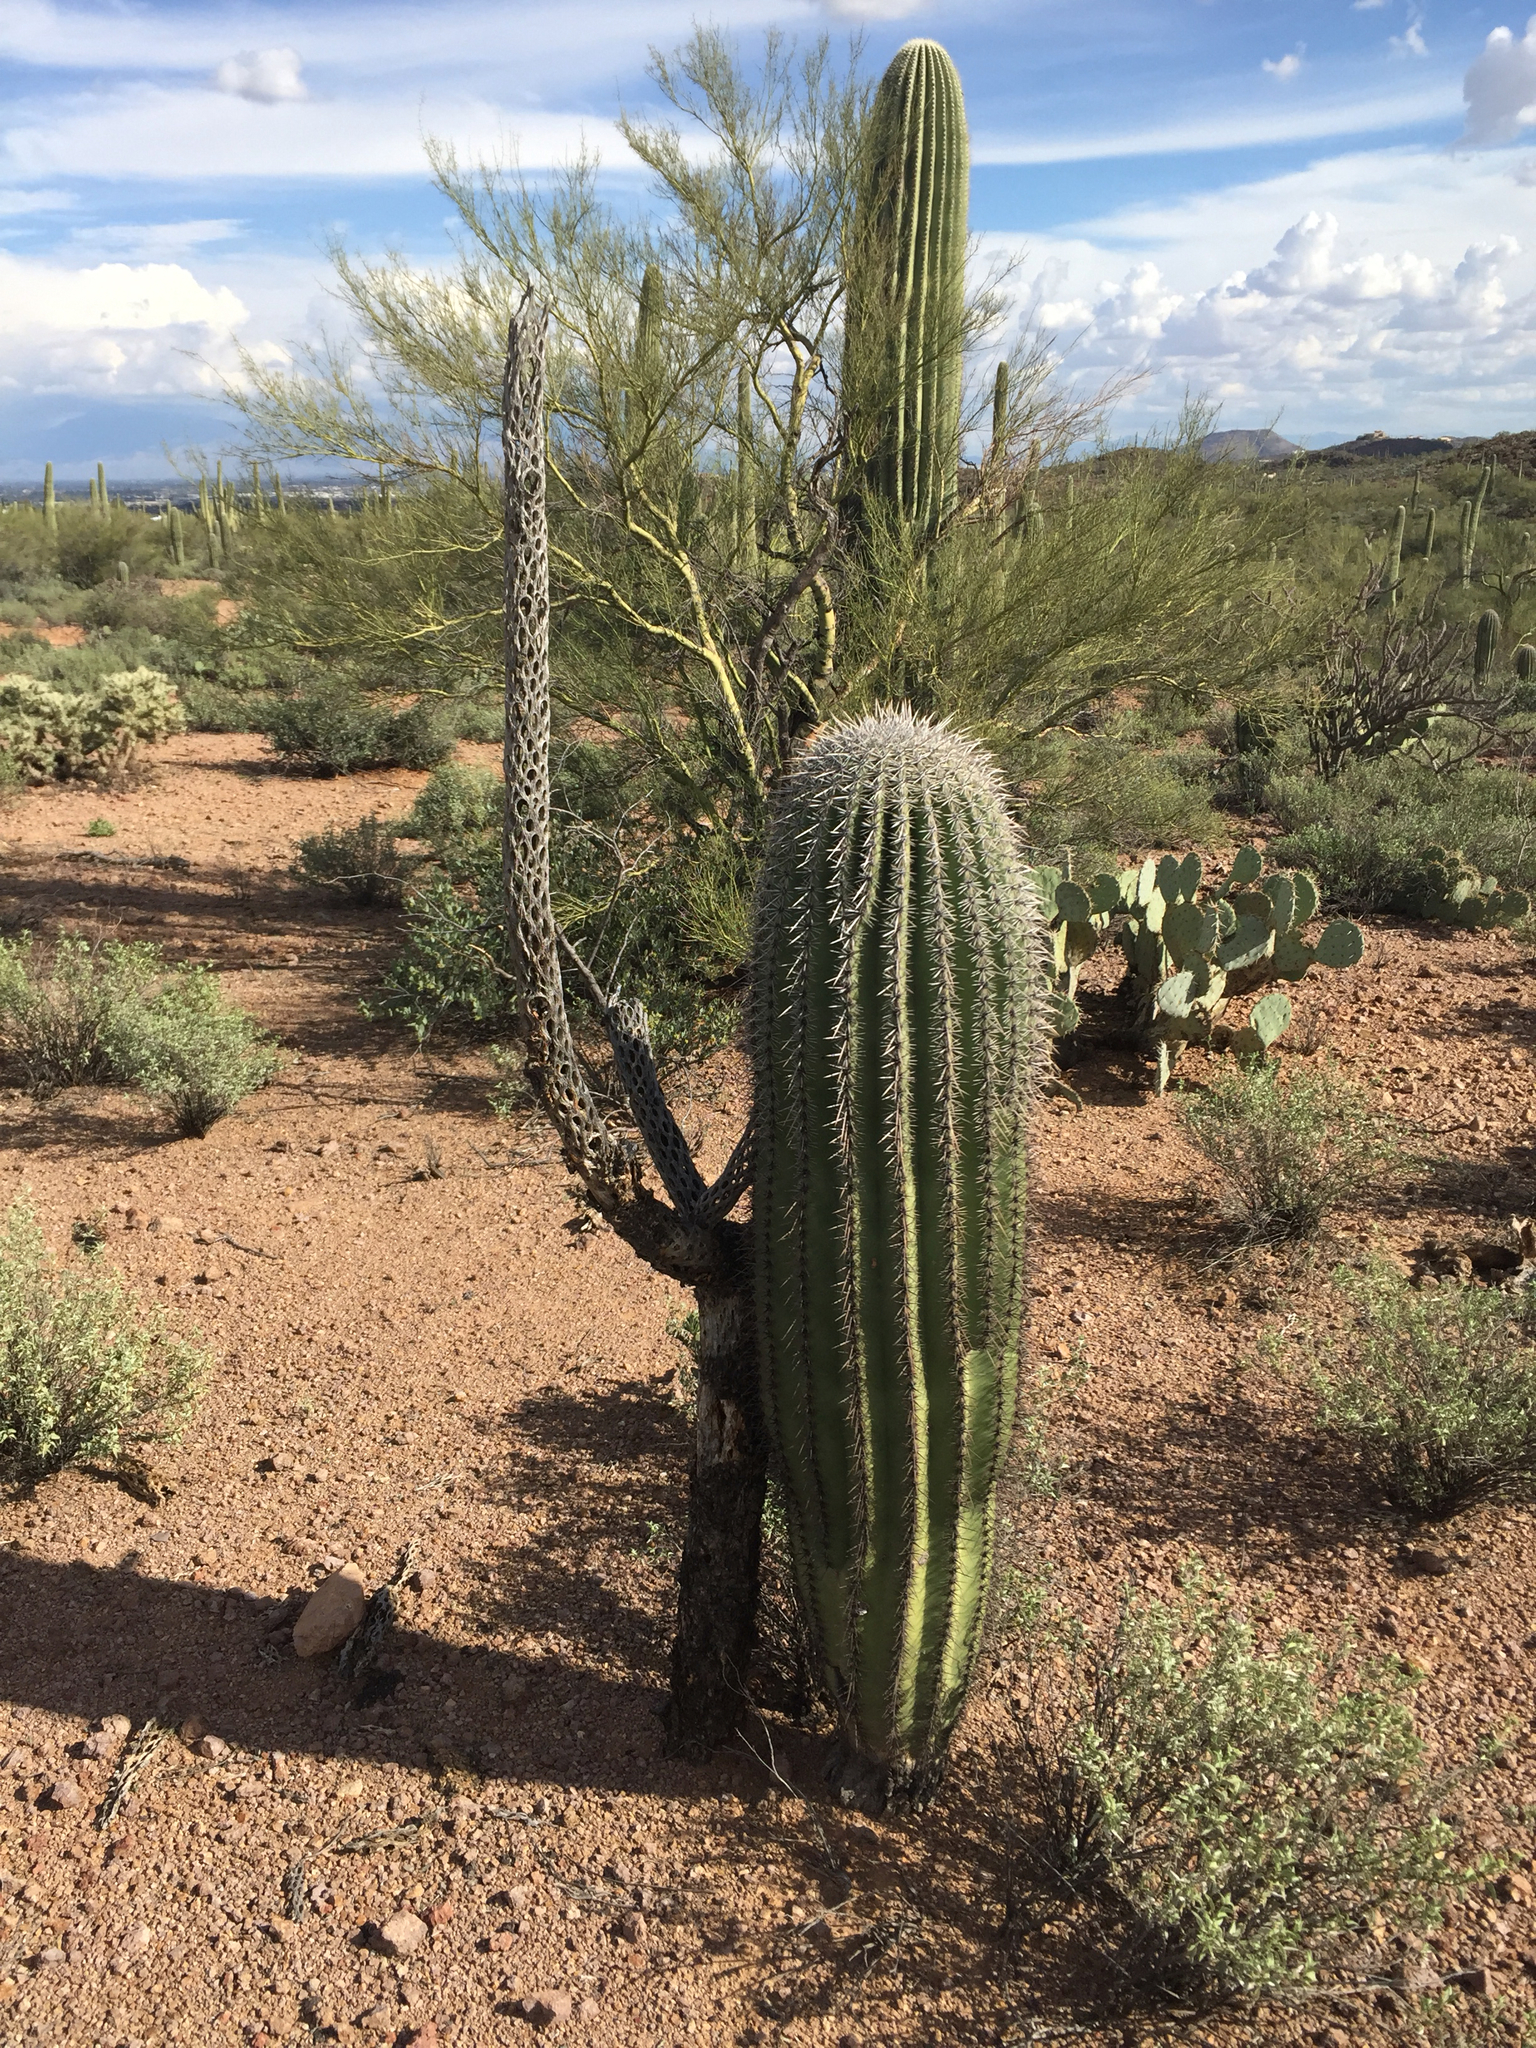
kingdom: Plantae
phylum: Tracheophyta
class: Magnoliopsida
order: Caryophyllales
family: Cactaceae
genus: Carnegiea
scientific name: Carnegiea gigantea
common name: Saguaro
